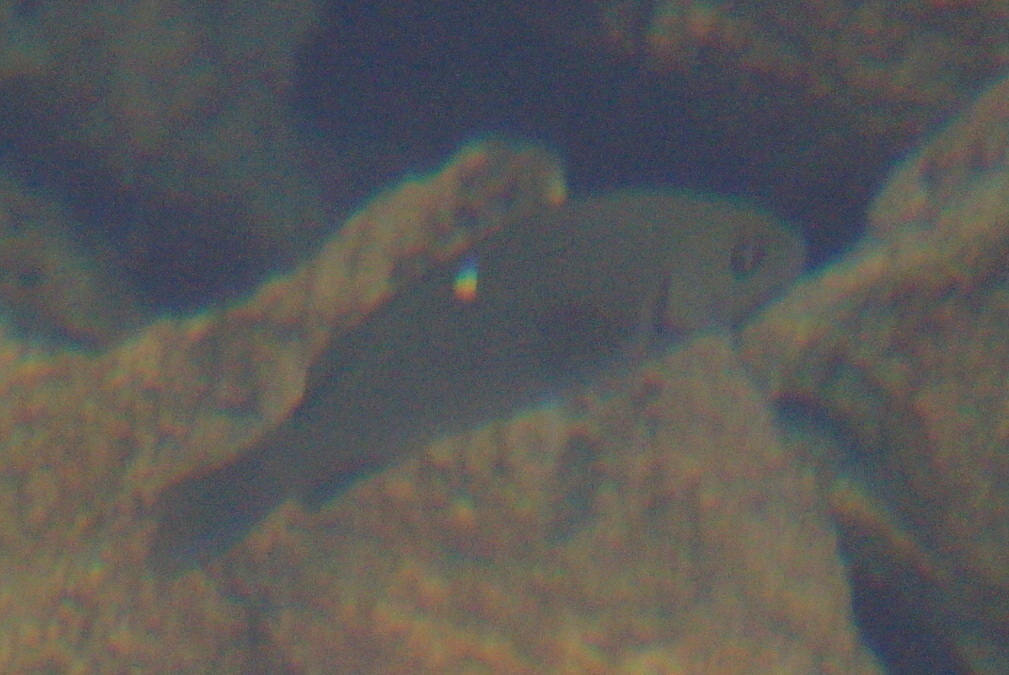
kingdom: Animalia
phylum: Chordata
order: Perciformes
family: Kyphosidae
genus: Girella
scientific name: Girella nigricans
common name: Opaleye
